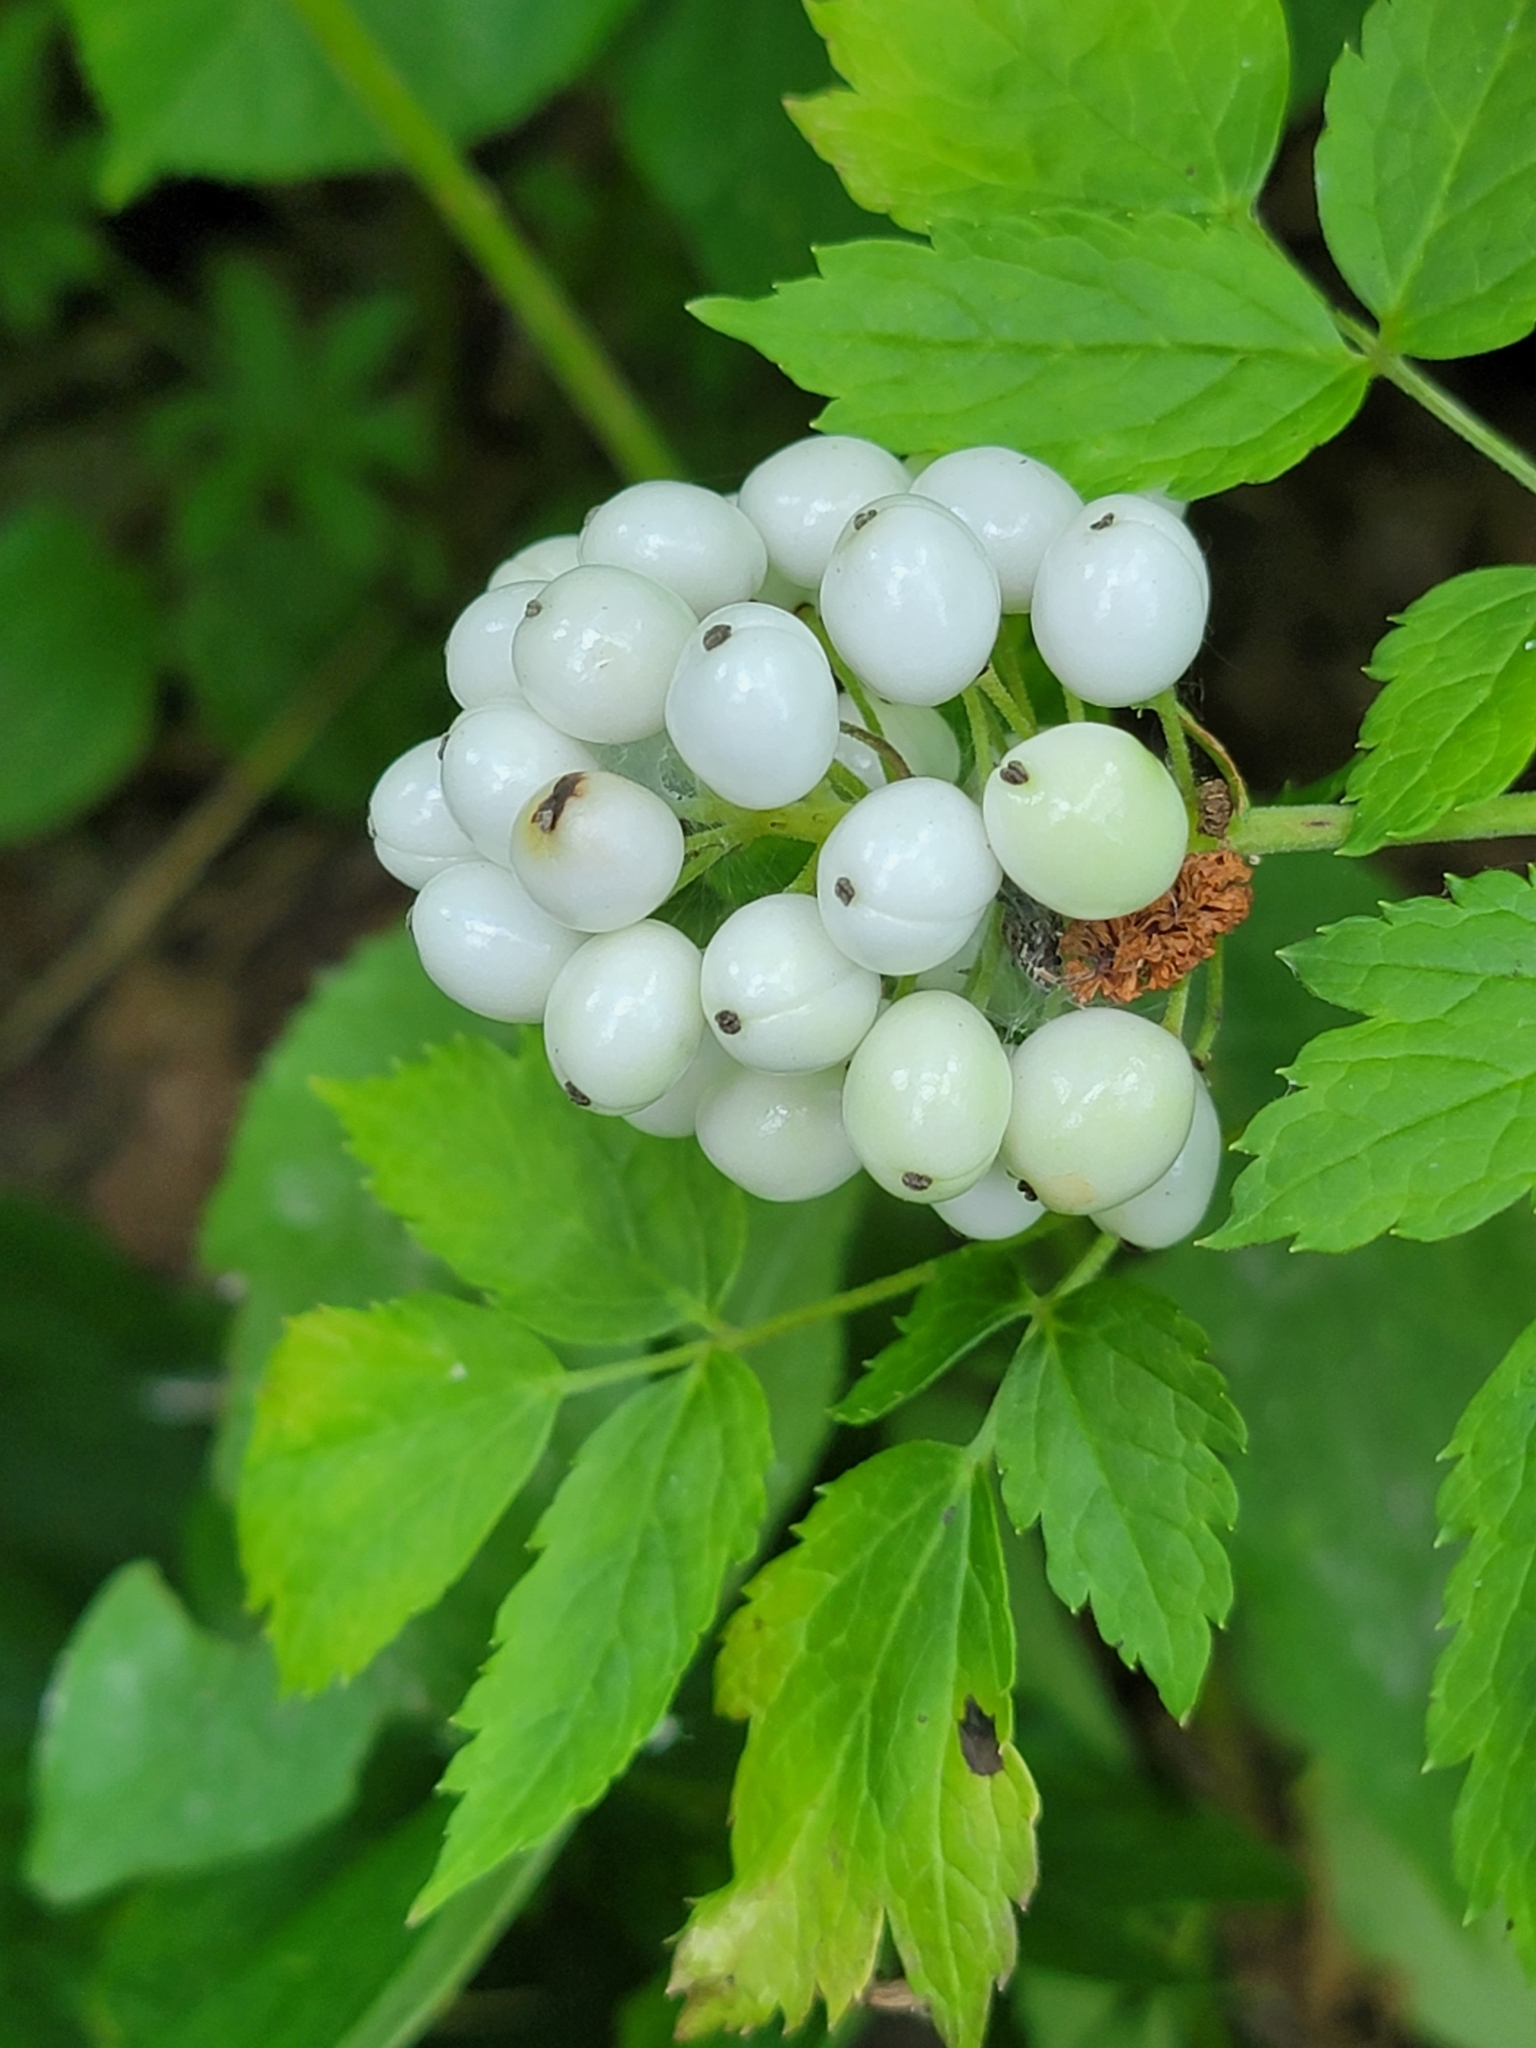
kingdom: Plantae
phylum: Tracheophyta
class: Magnoliopsida
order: Ranunculales
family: Ranunculaceae
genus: Actaea
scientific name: Actaea rubra
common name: Red baneberry
